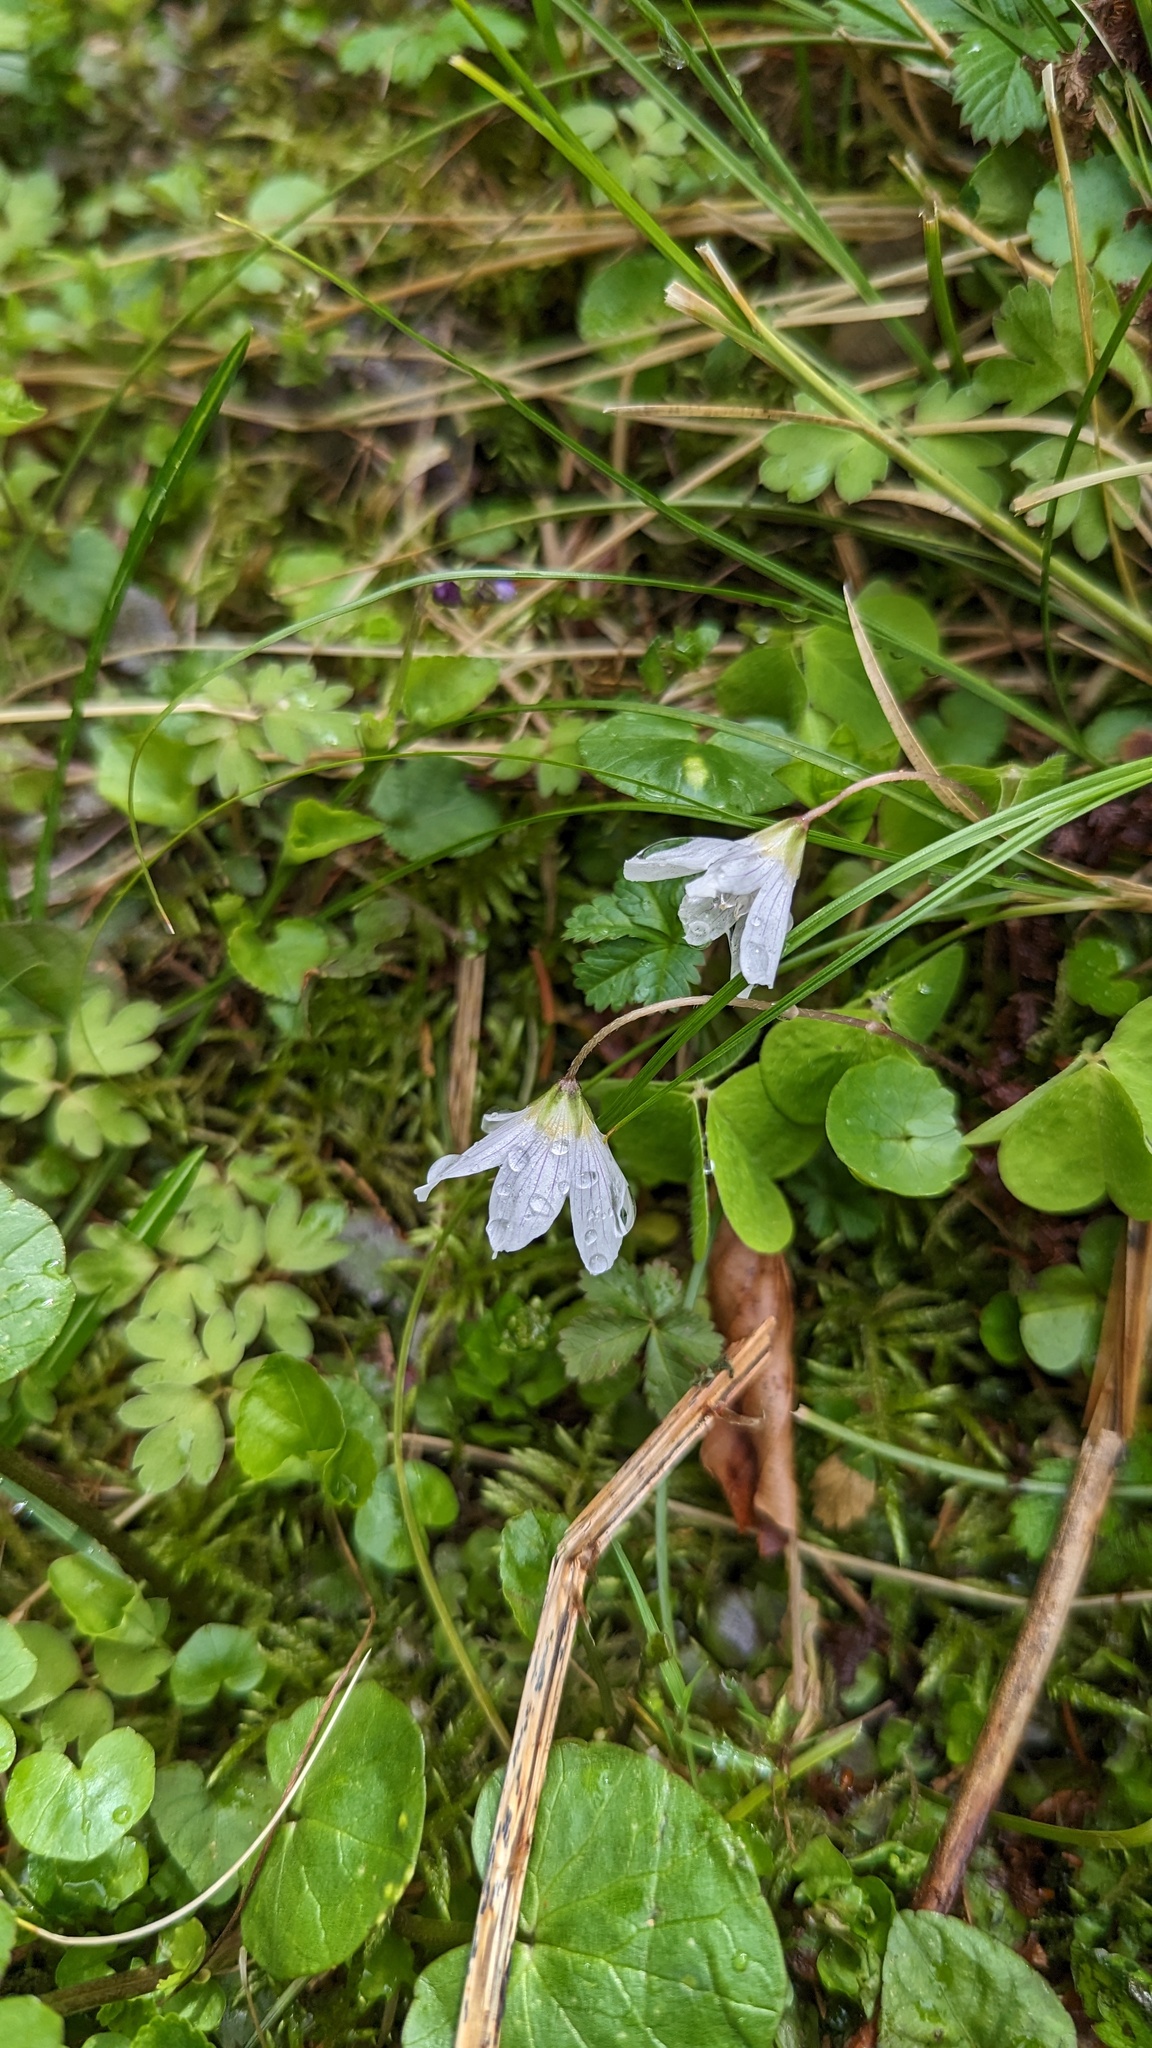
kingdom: Plantae
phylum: Tracheophyta
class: Magnoliopsida
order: Oxalidales
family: Oxalidaceae
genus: Oxalis
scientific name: Oxalis acetosella
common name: Wood-sorrel
